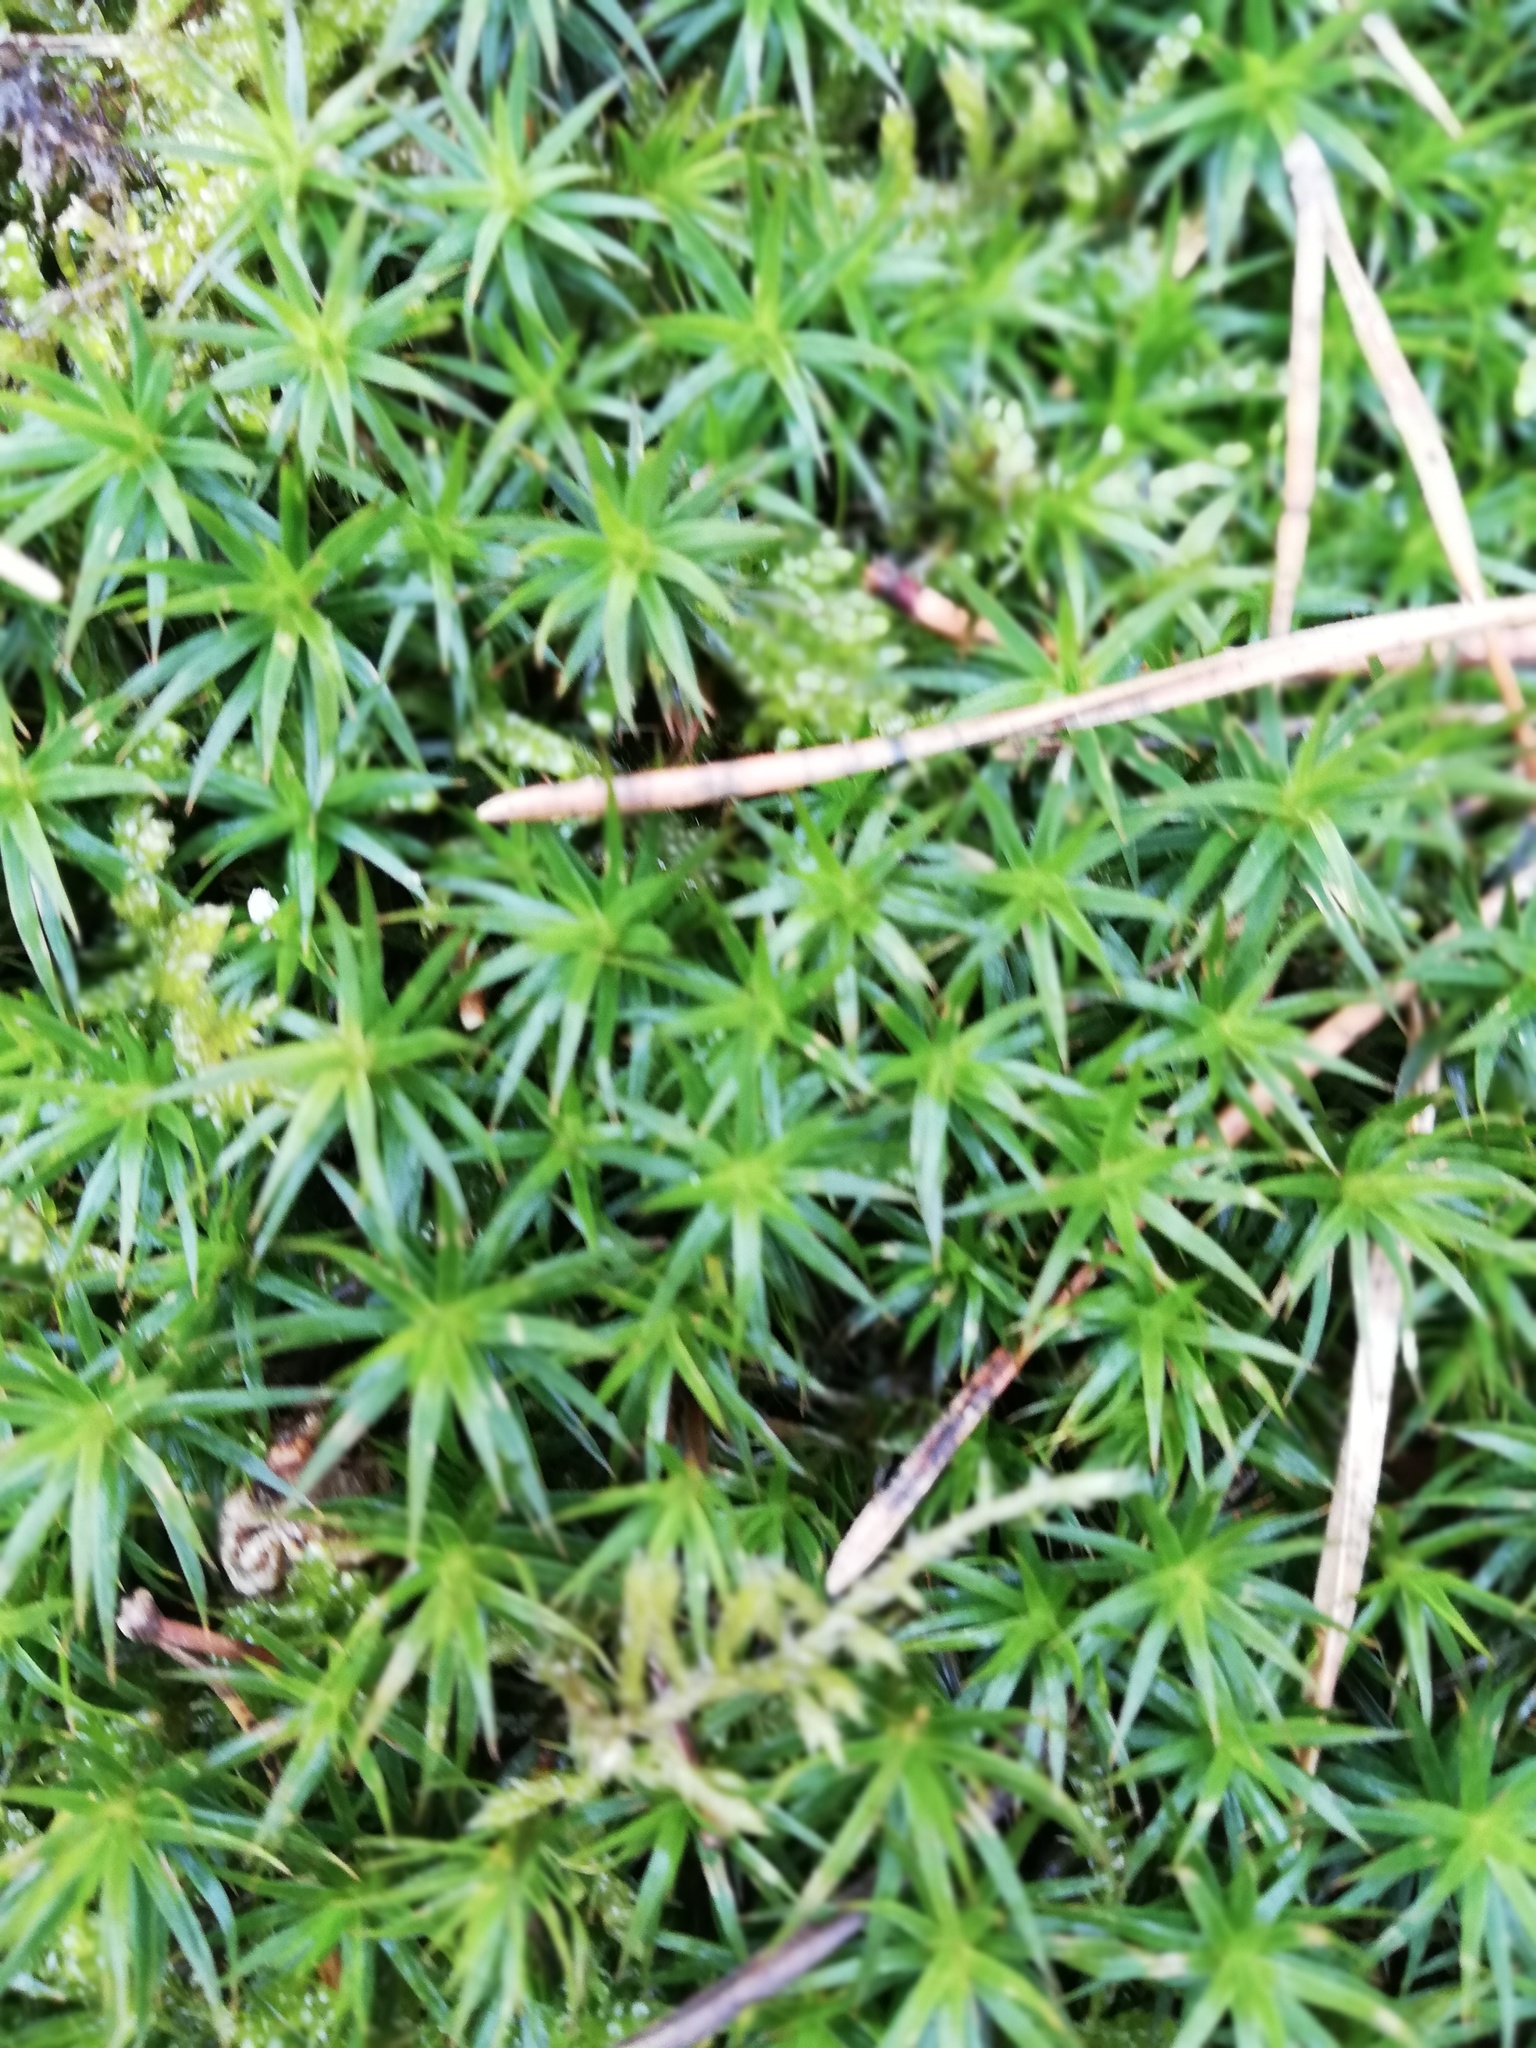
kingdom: Plantae
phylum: Bryophyta
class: Polytrichopsida
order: Polytrichales
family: Polytrichaceae
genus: Polytrichum
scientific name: Polytrichum formosum
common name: Bank haircap moss
